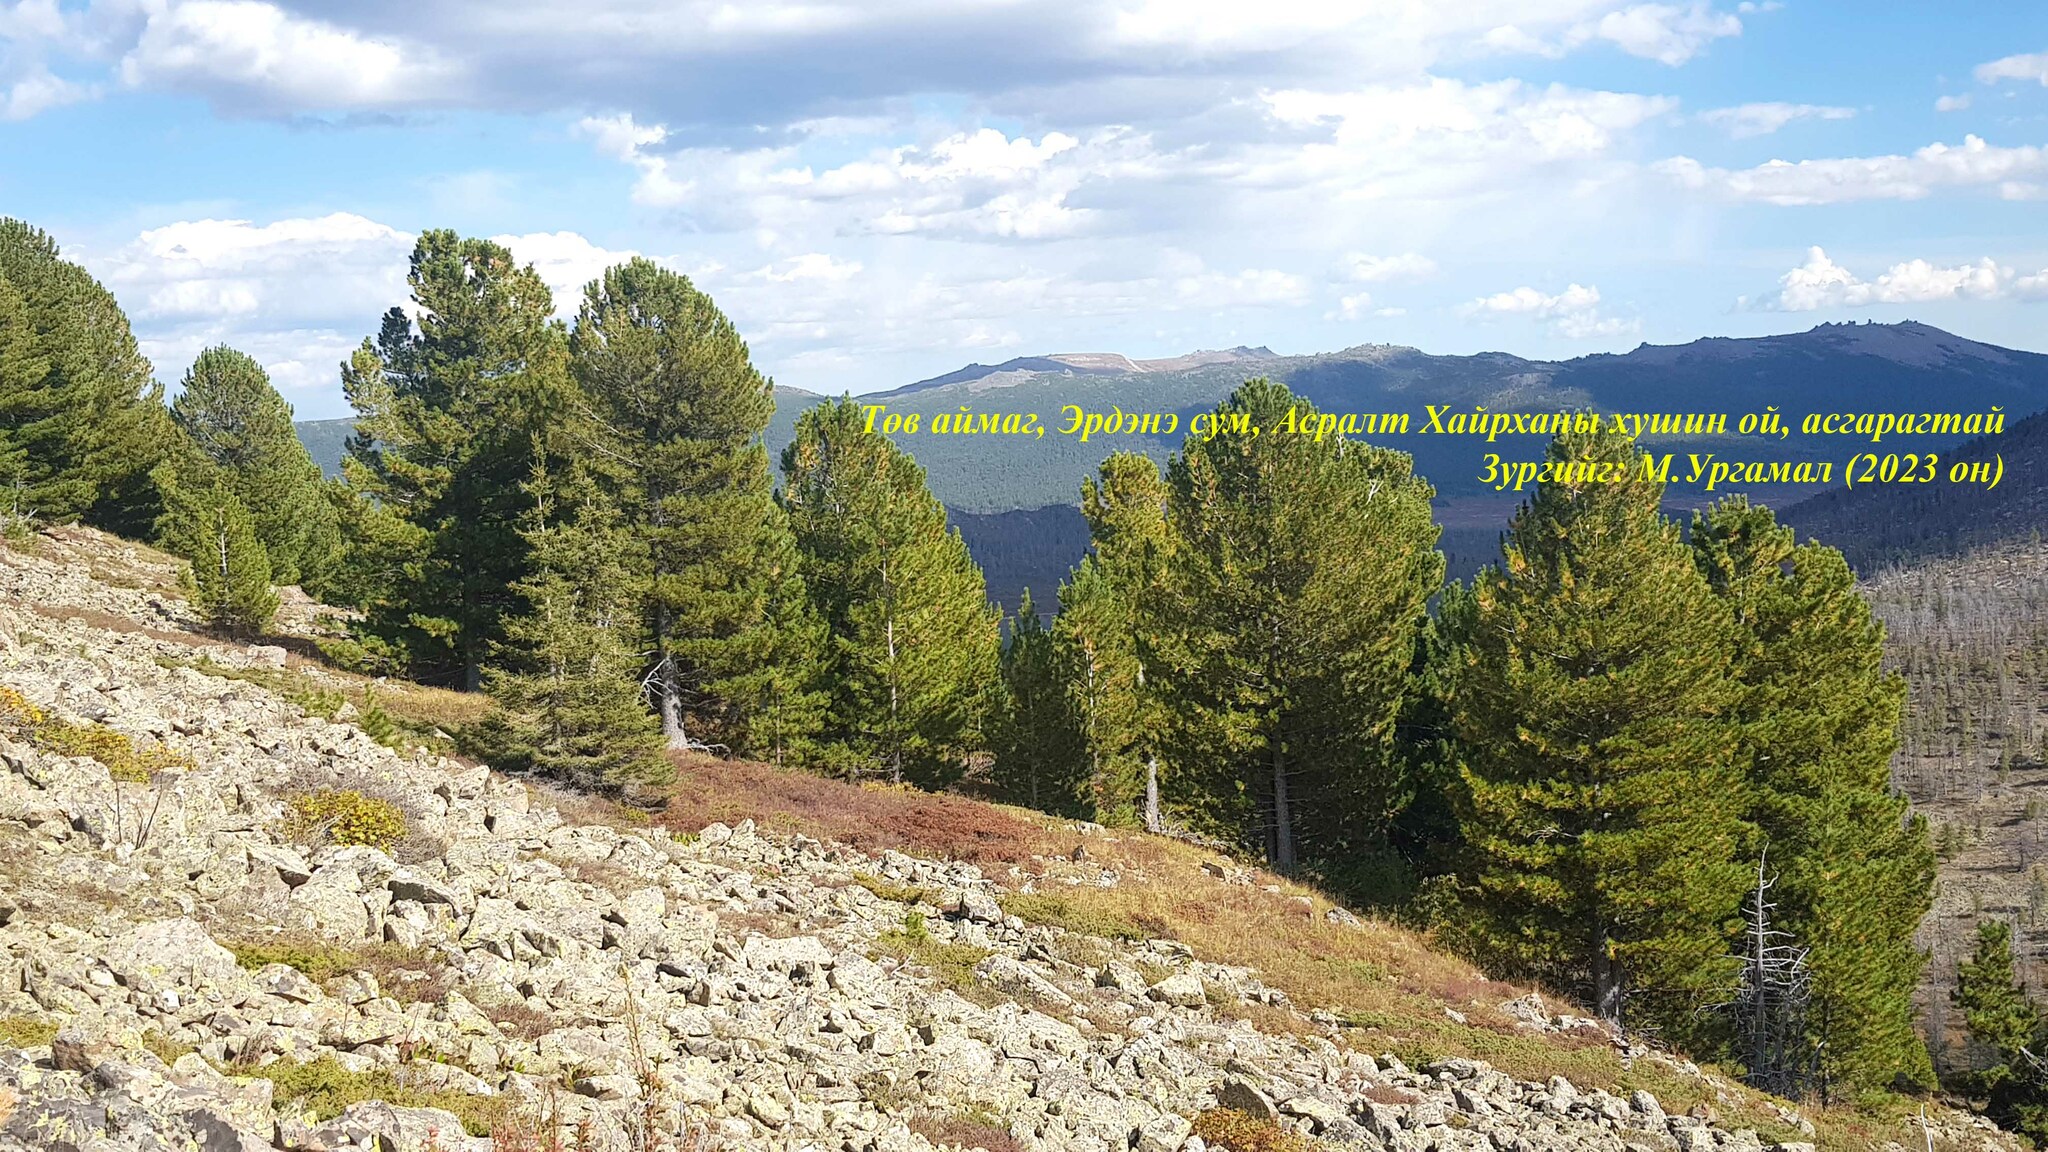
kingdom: Plantae
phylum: Tracheophyta
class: Pinopsida
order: Pinales
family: Pinaceae
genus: Pinus
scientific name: Pinus sibirica
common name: Siberian pine
